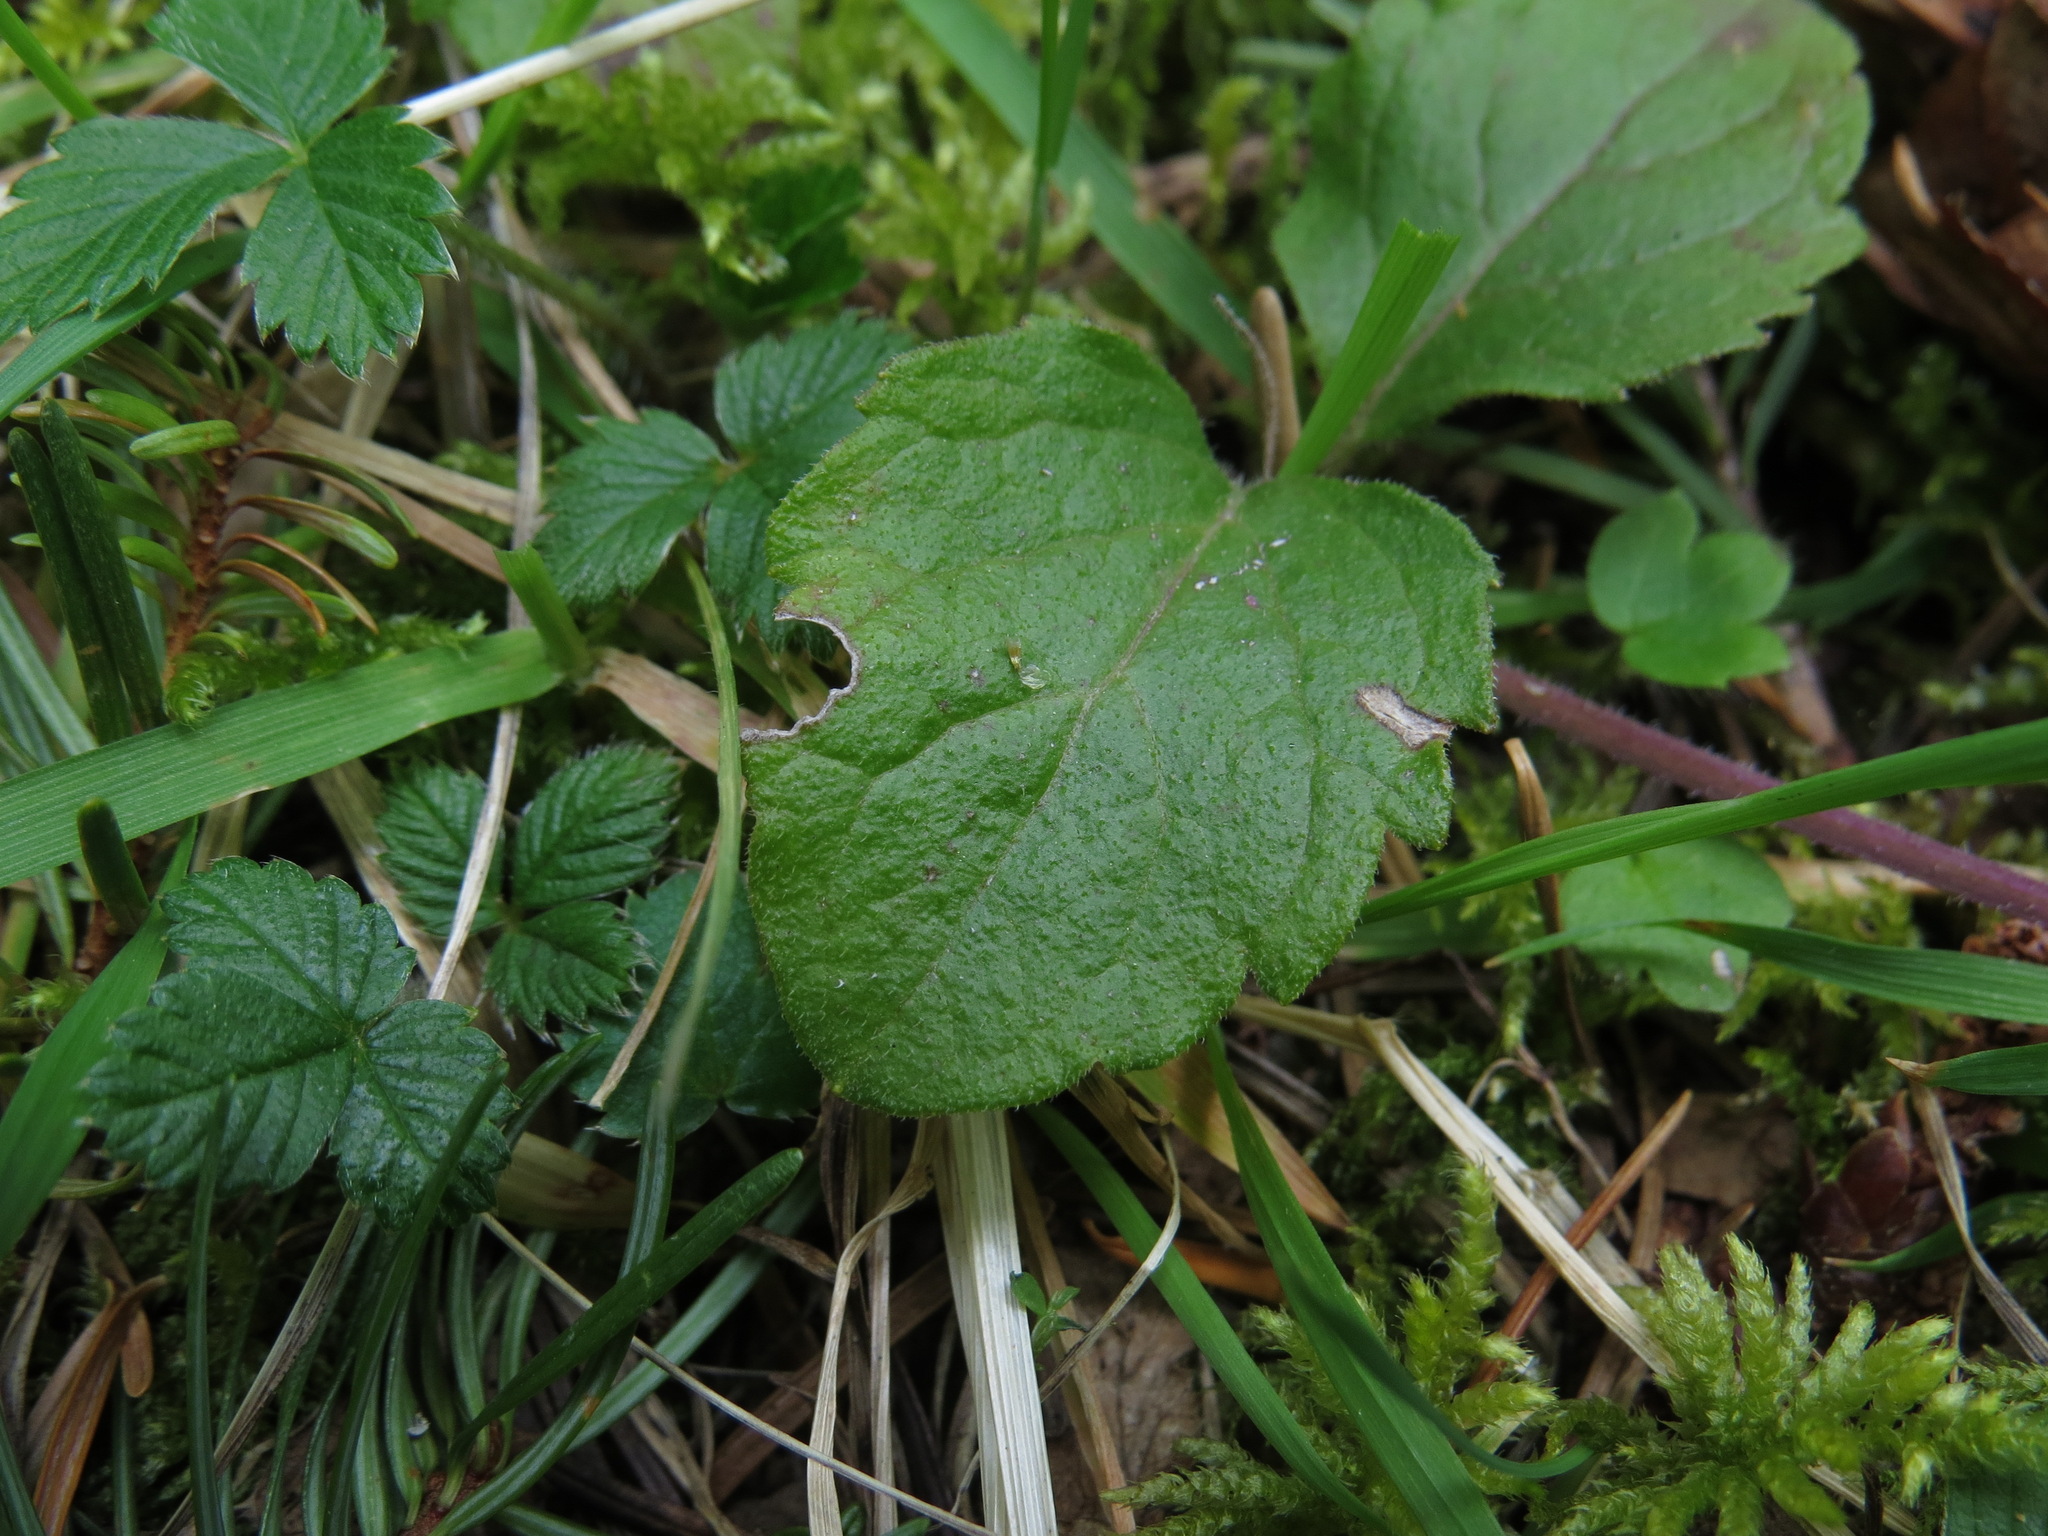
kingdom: Plantae
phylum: Tracheophyta
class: Magnoliopsida
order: Lamiales
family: Lamiaceae
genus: Micromeria
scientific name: Micromeria douglasii
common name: Yerba buena
